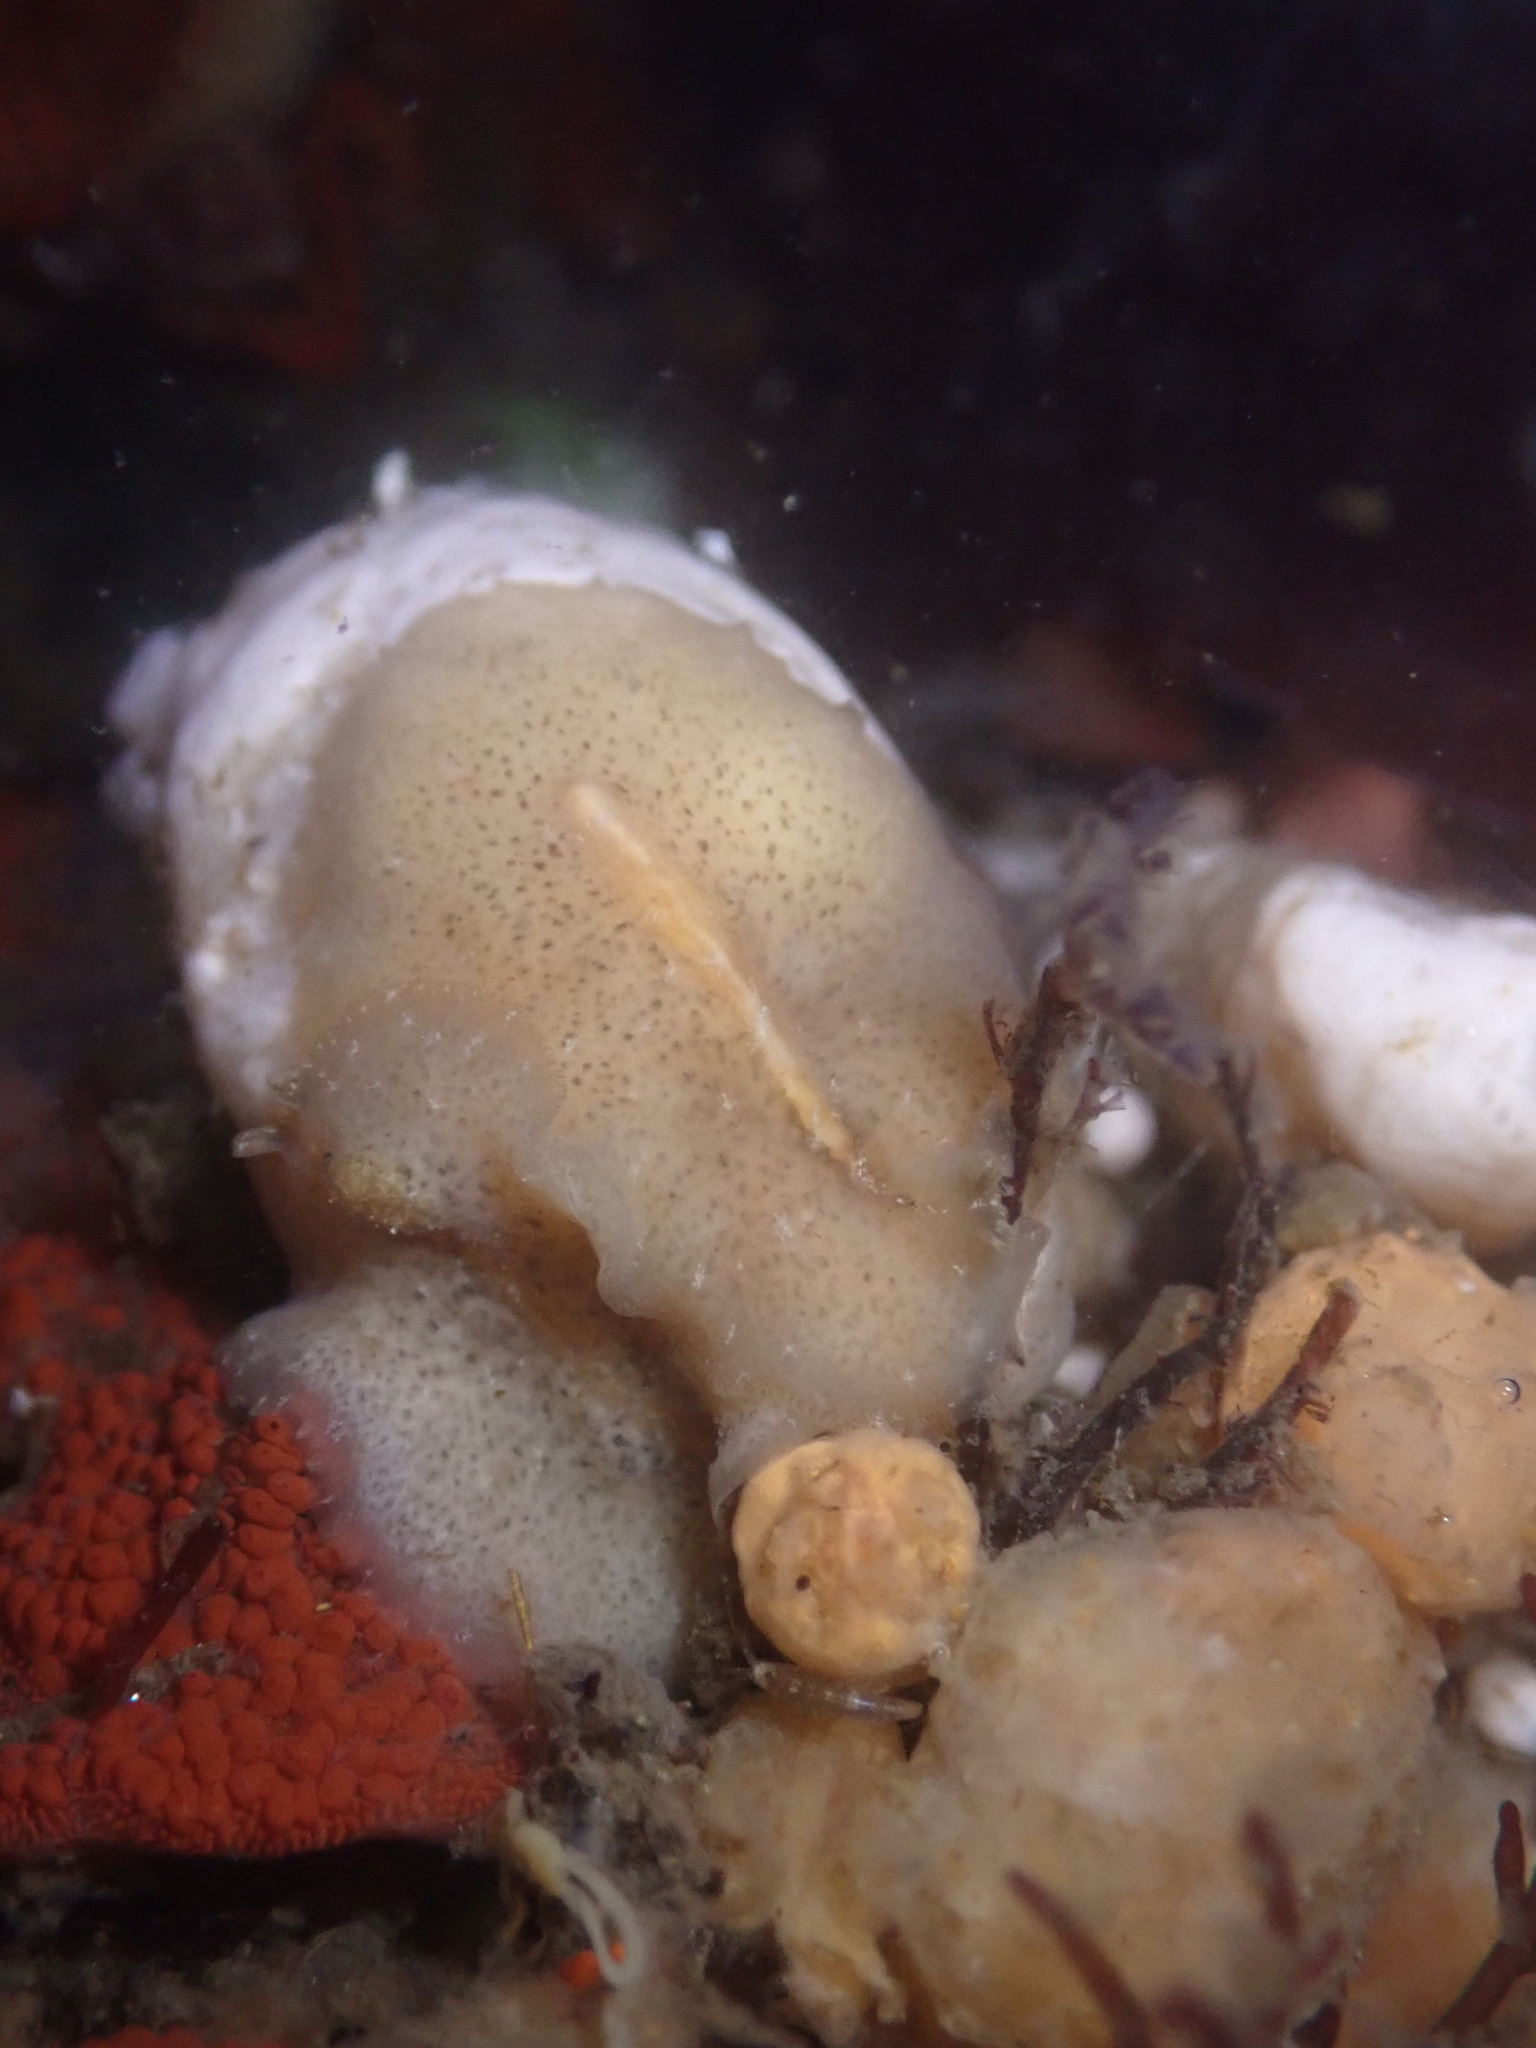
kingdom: Animalia
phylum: Platyhelminthes
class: Turbellaria
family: Pseudocerotidae
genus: Pseudoceros
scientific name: Pseudoceros canadensis
